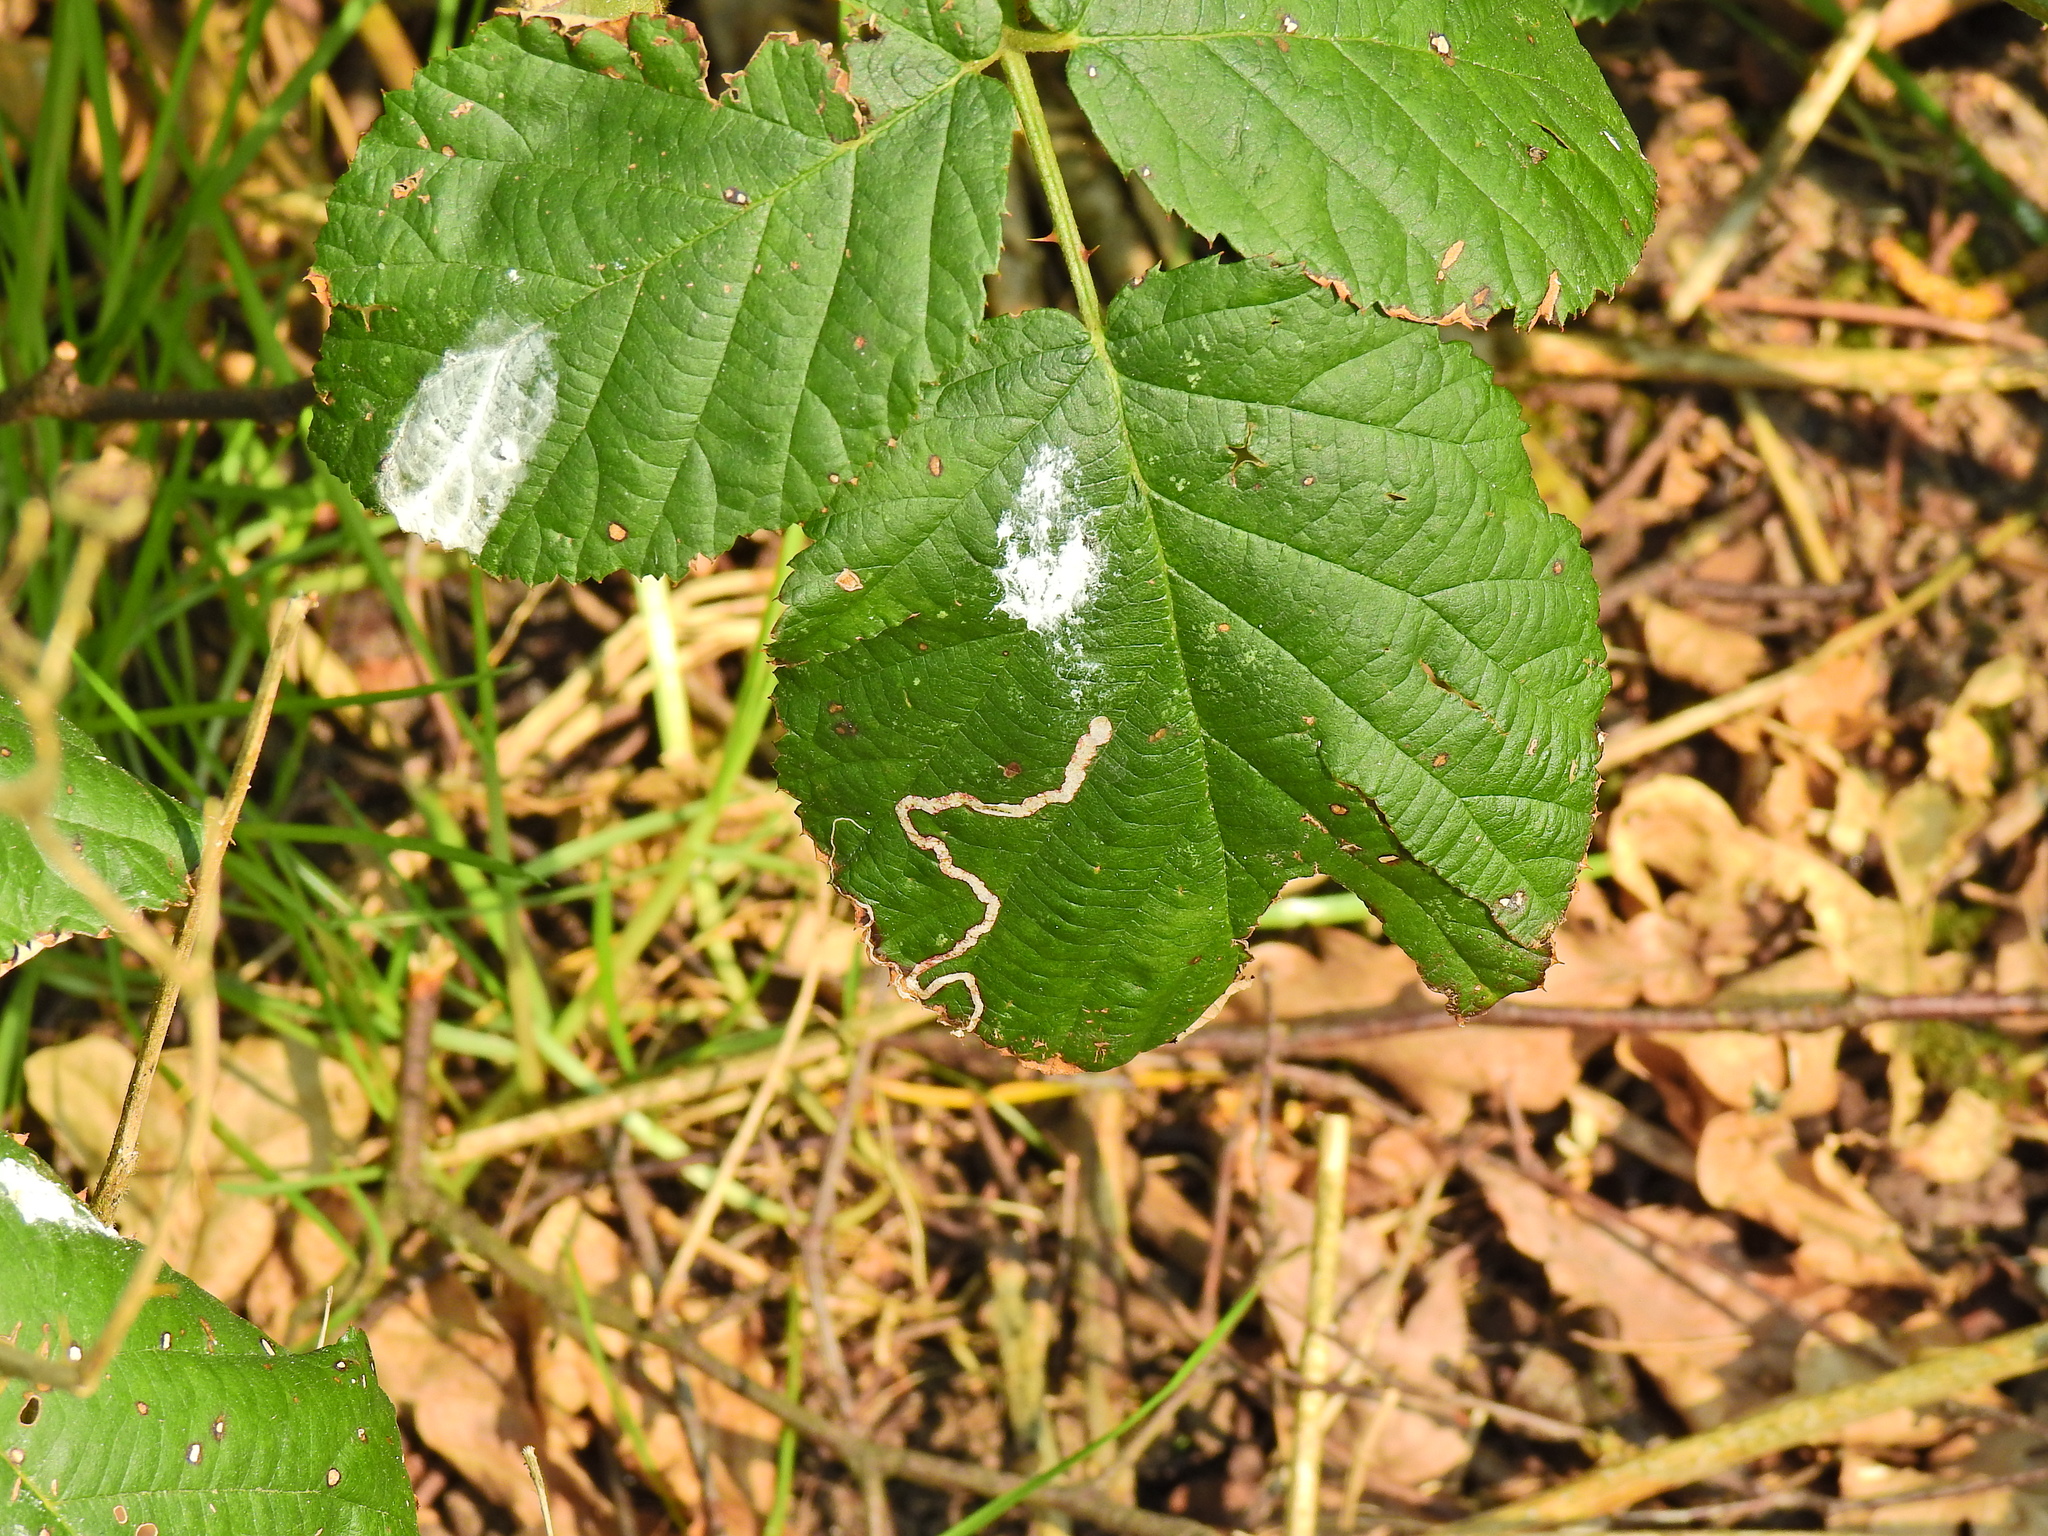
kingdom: Animalia
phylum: Arthropoda
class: Insecta
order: Lepidoptera
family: Nepticulidae
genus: Stigmella
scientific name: Stigmella aurella
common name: Golden pigmy
